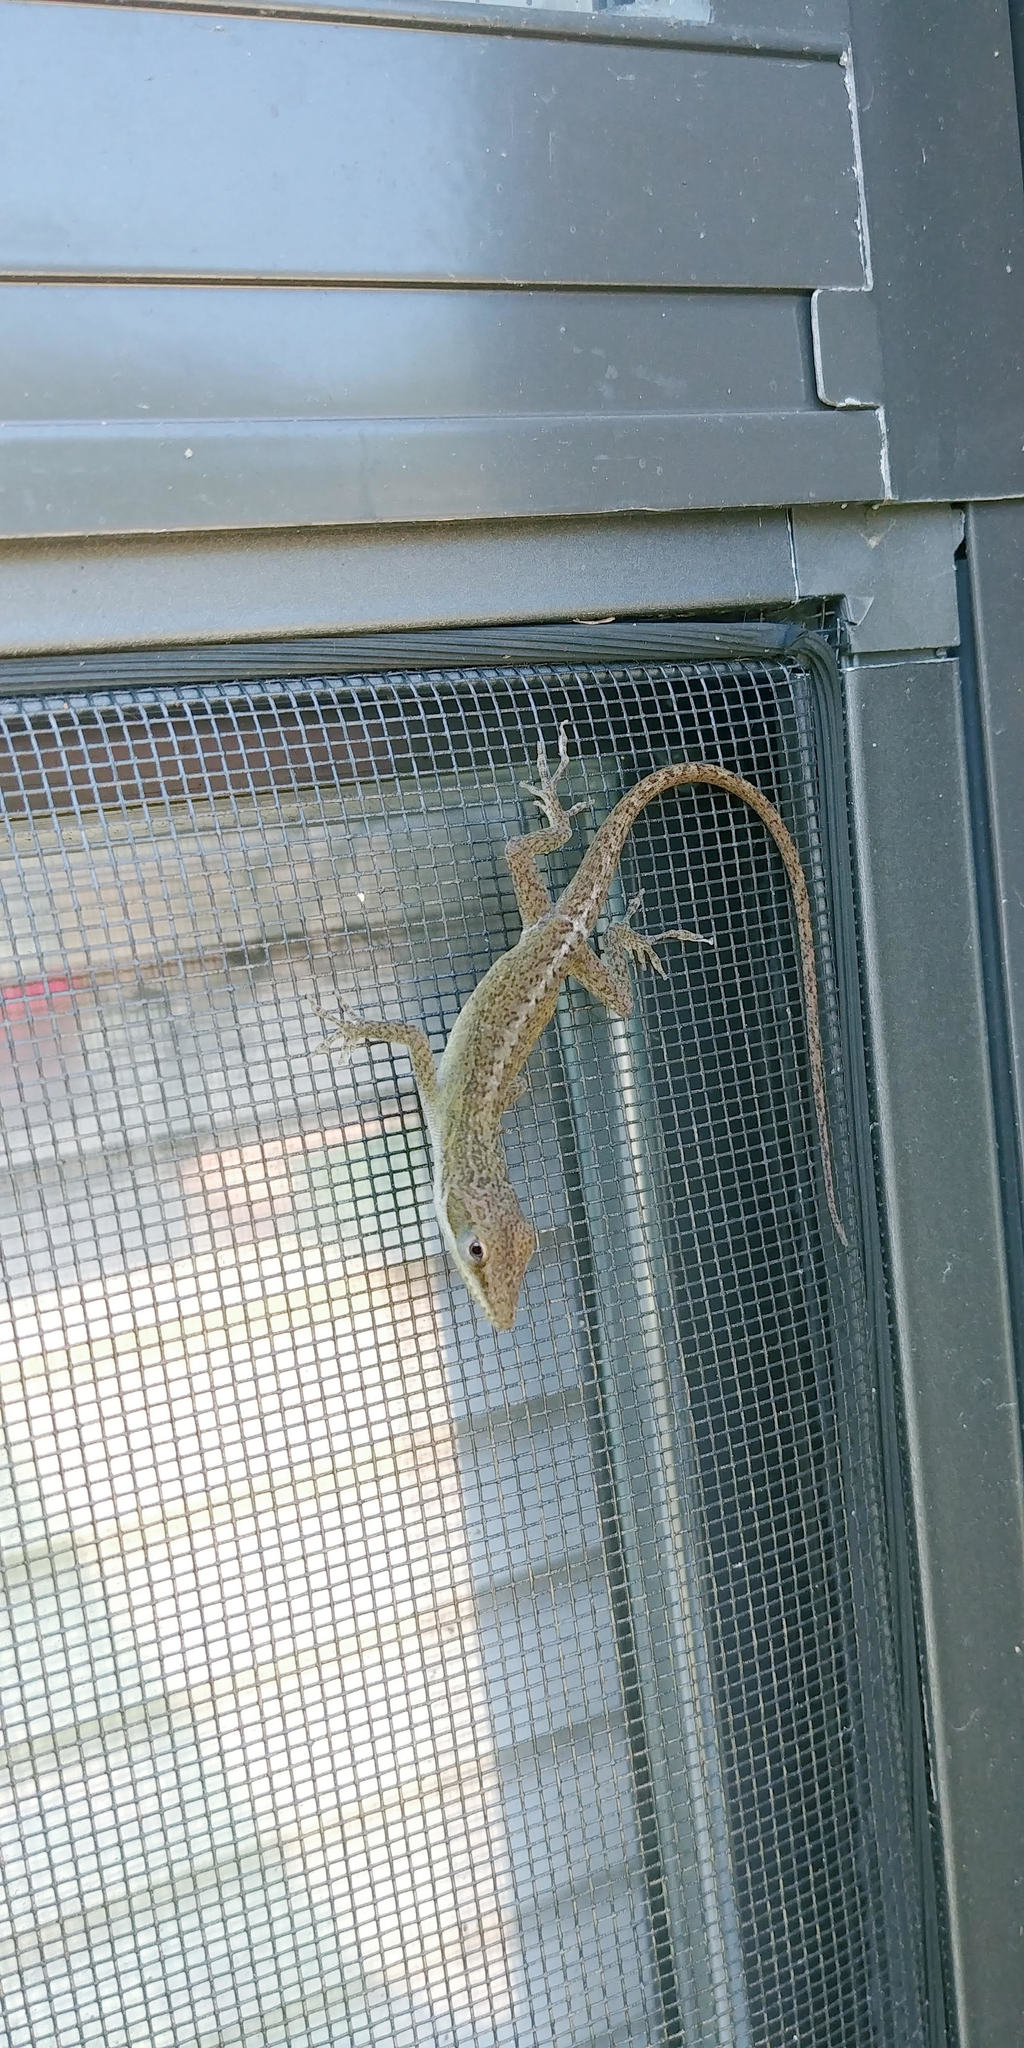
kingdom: Animalia
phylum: Chordata
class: Squamata
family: Dactyloidae
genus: Anolis
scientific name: Anolis carolinensis
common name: Green anole
